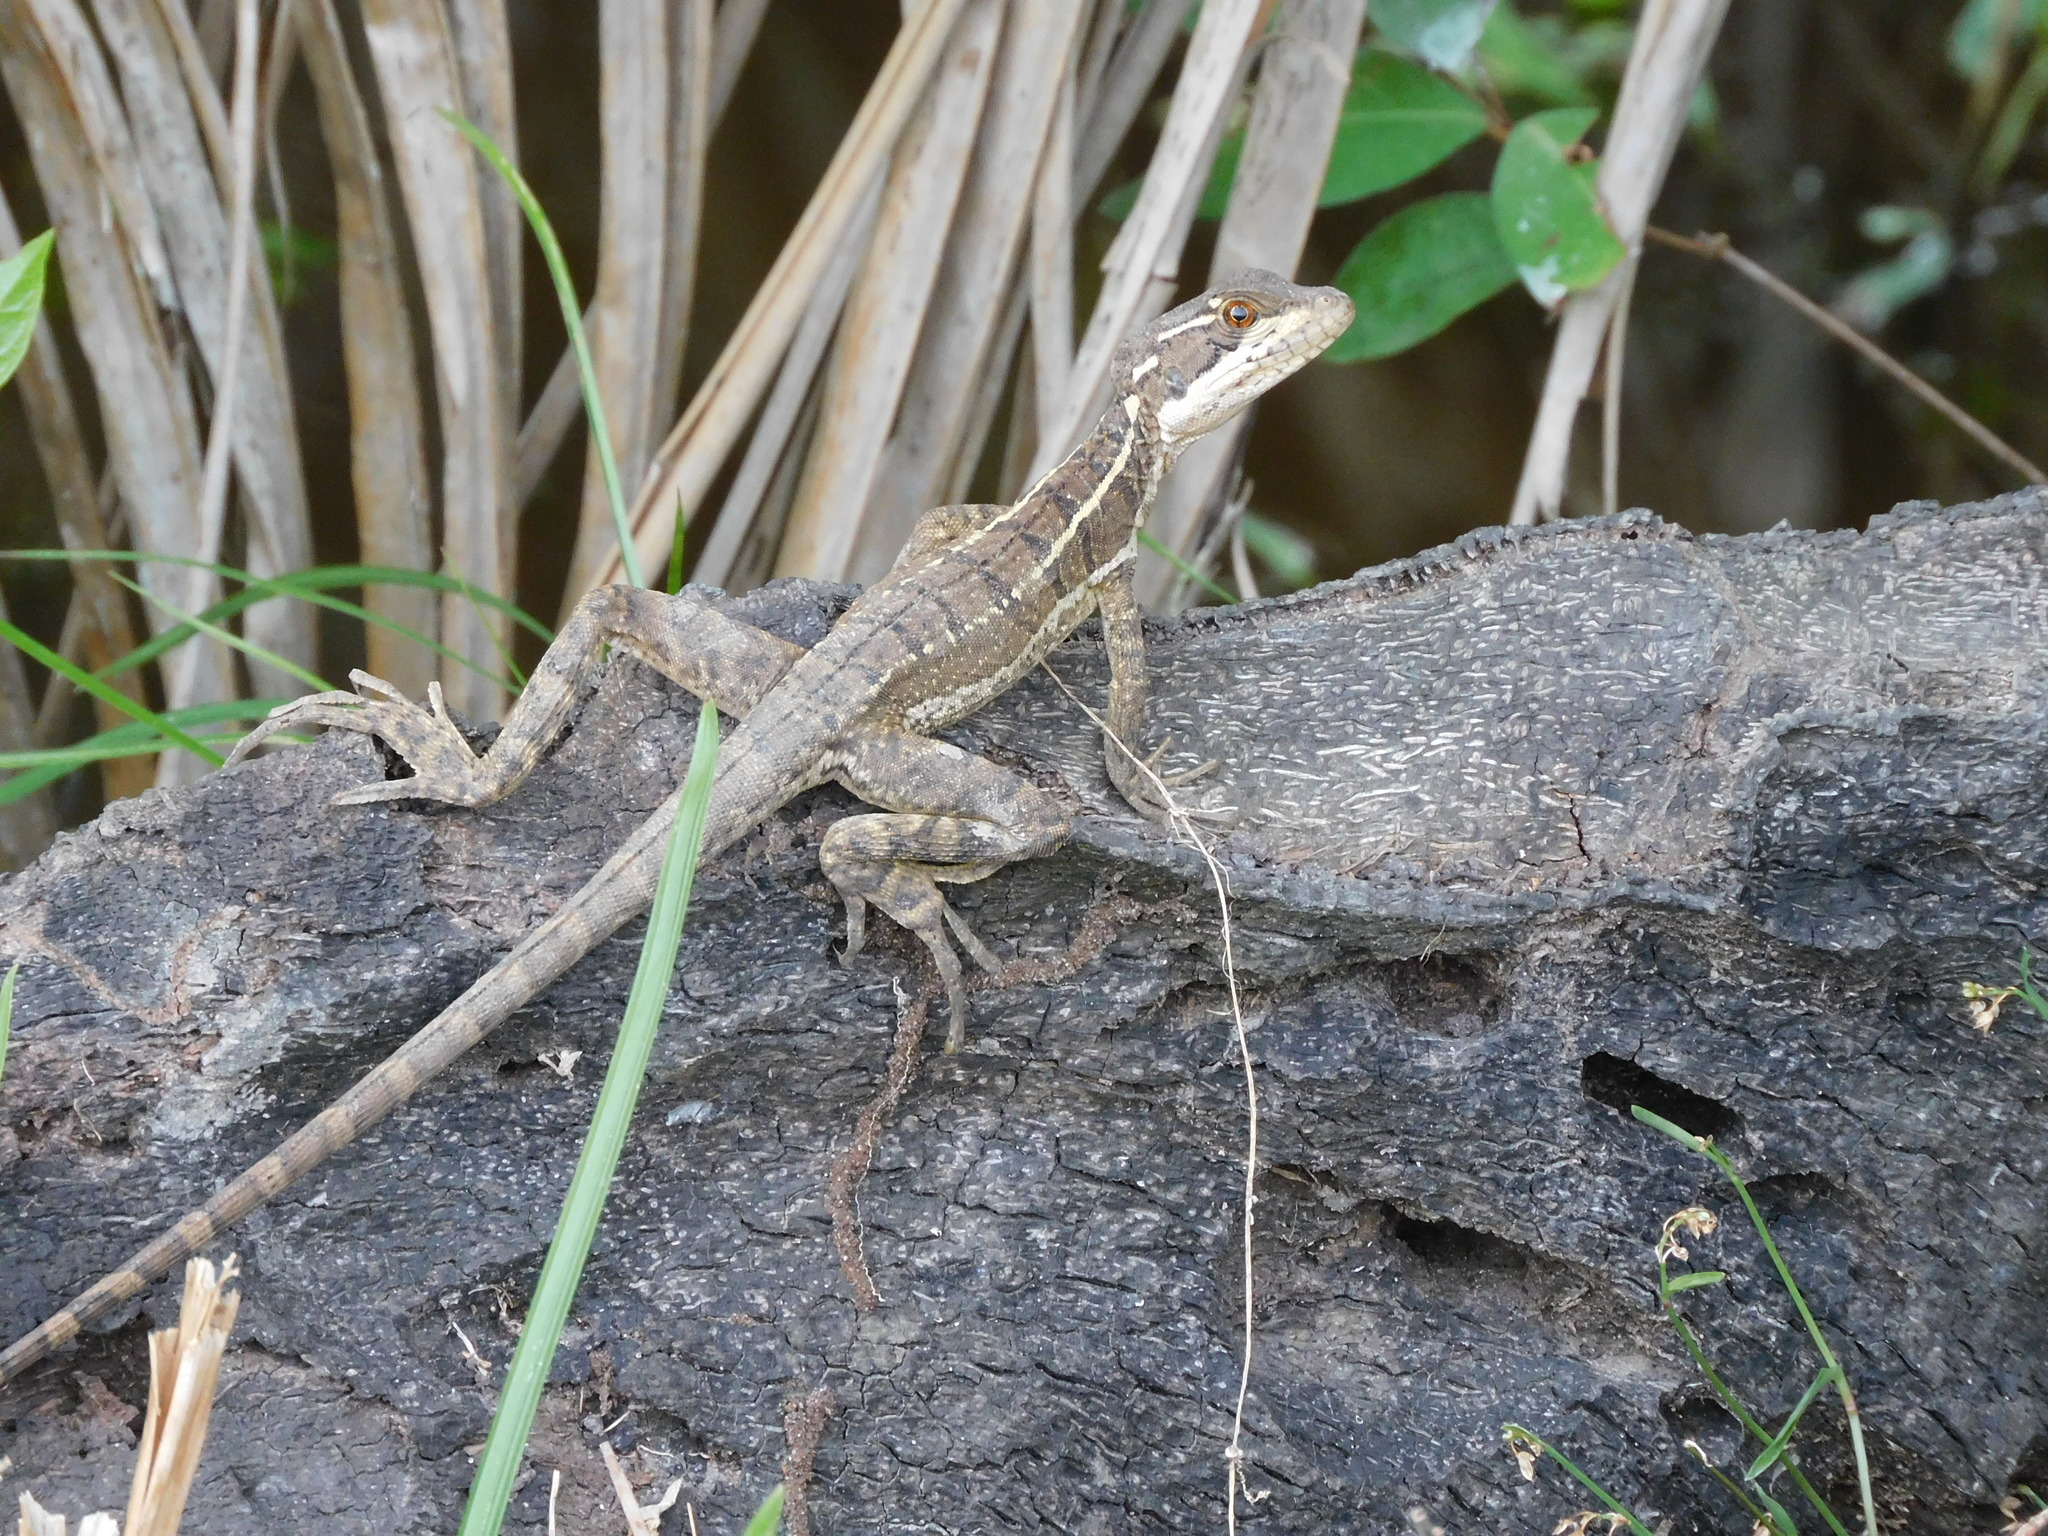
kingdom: Animalia
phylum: Chordata
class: Squamata
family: Corytophanidae
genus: Basiliscus
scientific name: Basiliscus basiliscus
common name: Common basilisk
